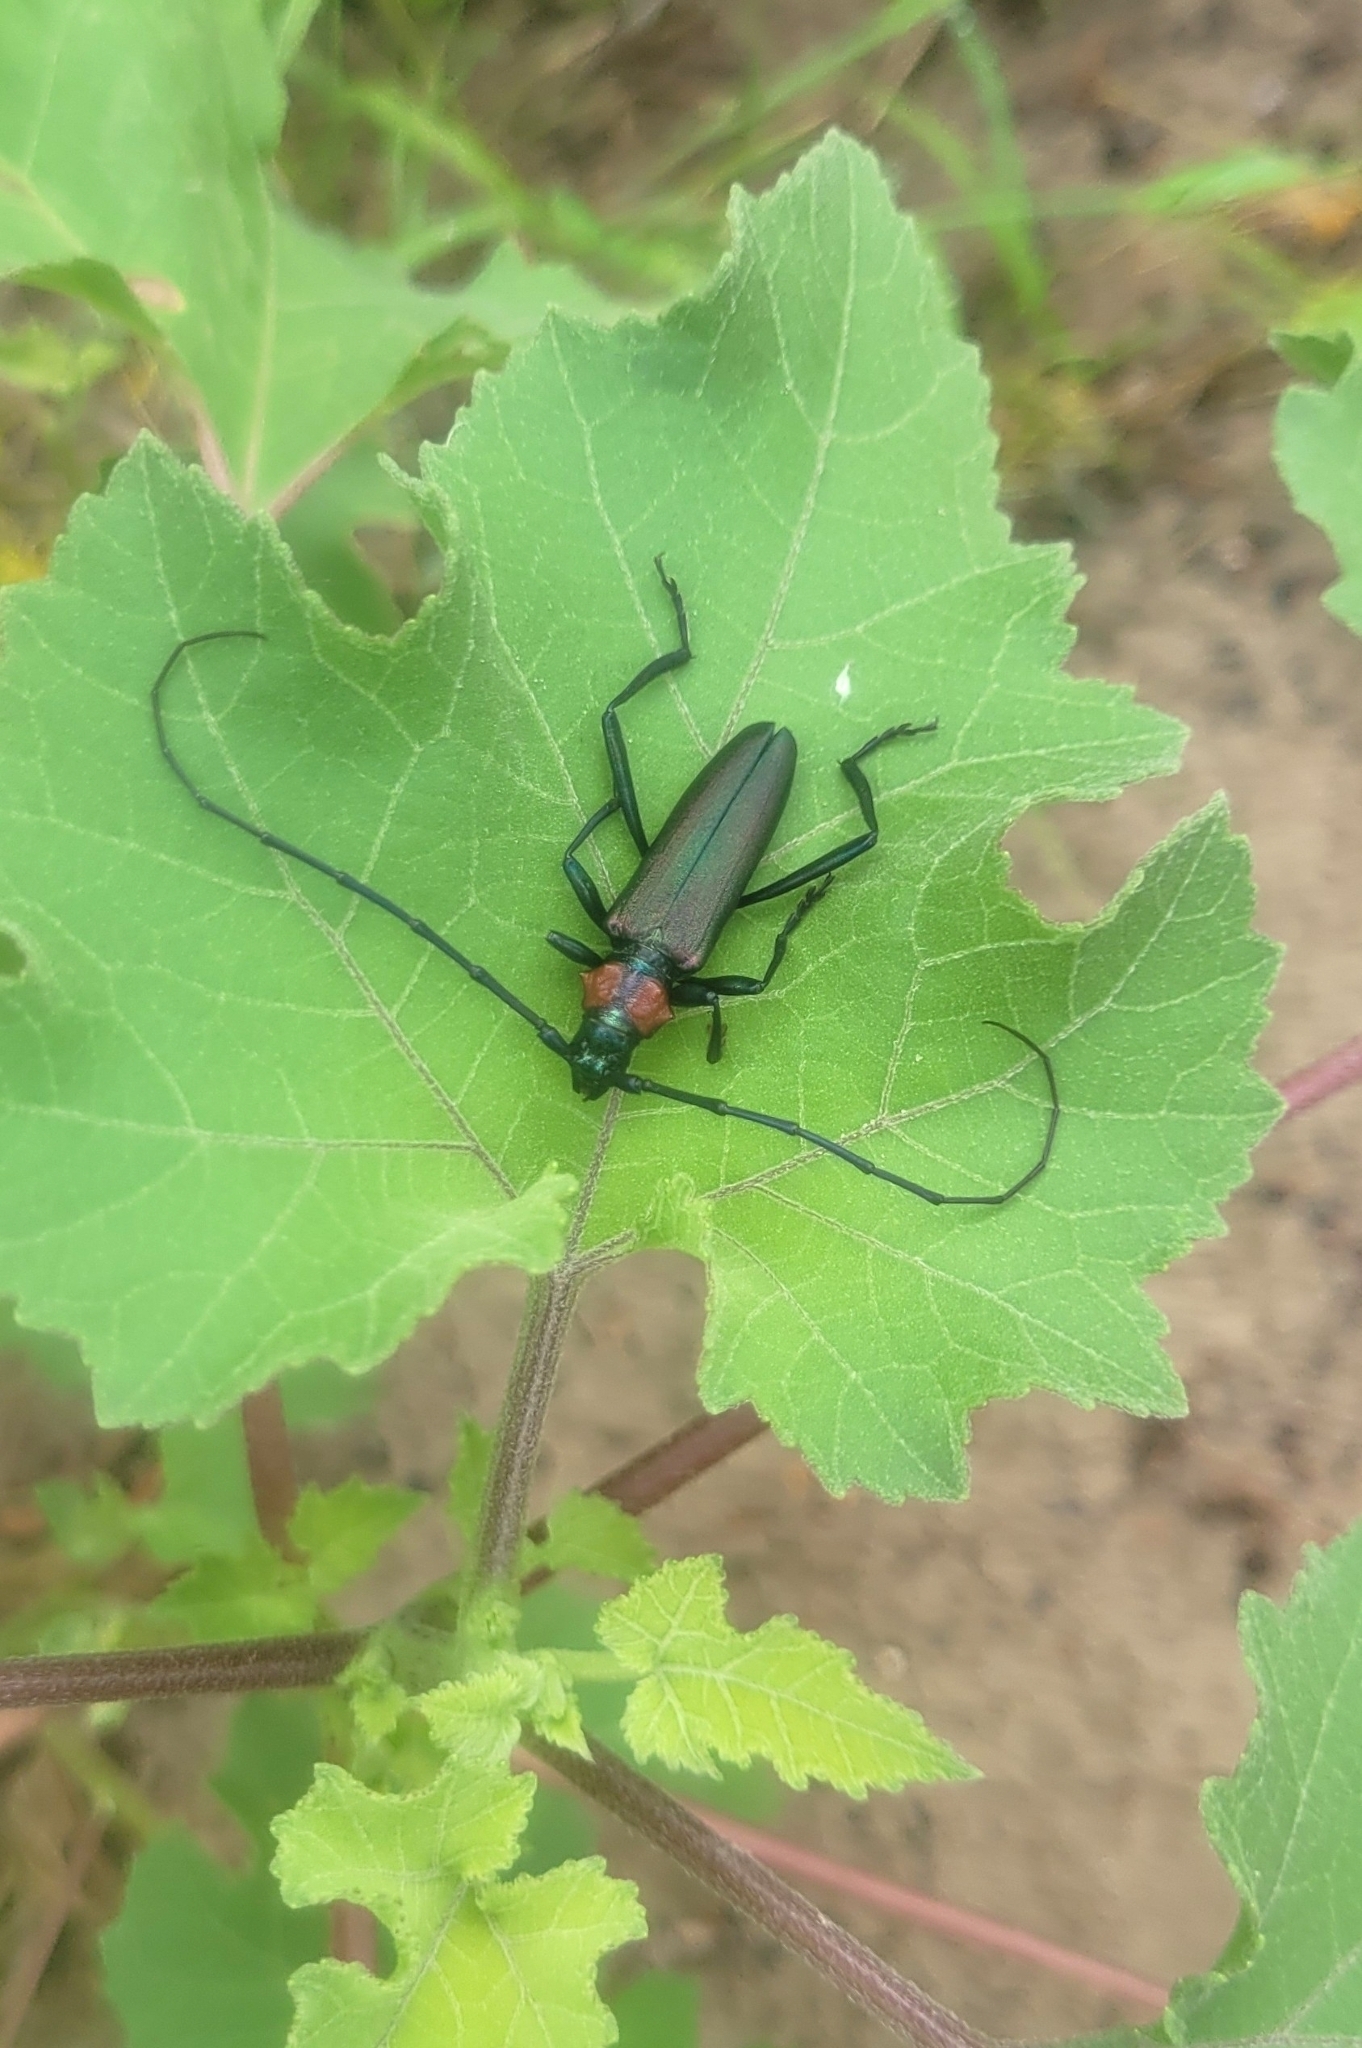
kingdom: Animalia
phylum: Arthropoda
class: Insecta
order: Coleoptera
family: Cerambycidae
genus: Aromia
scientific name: Aromia moschata
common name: Musk beetle
